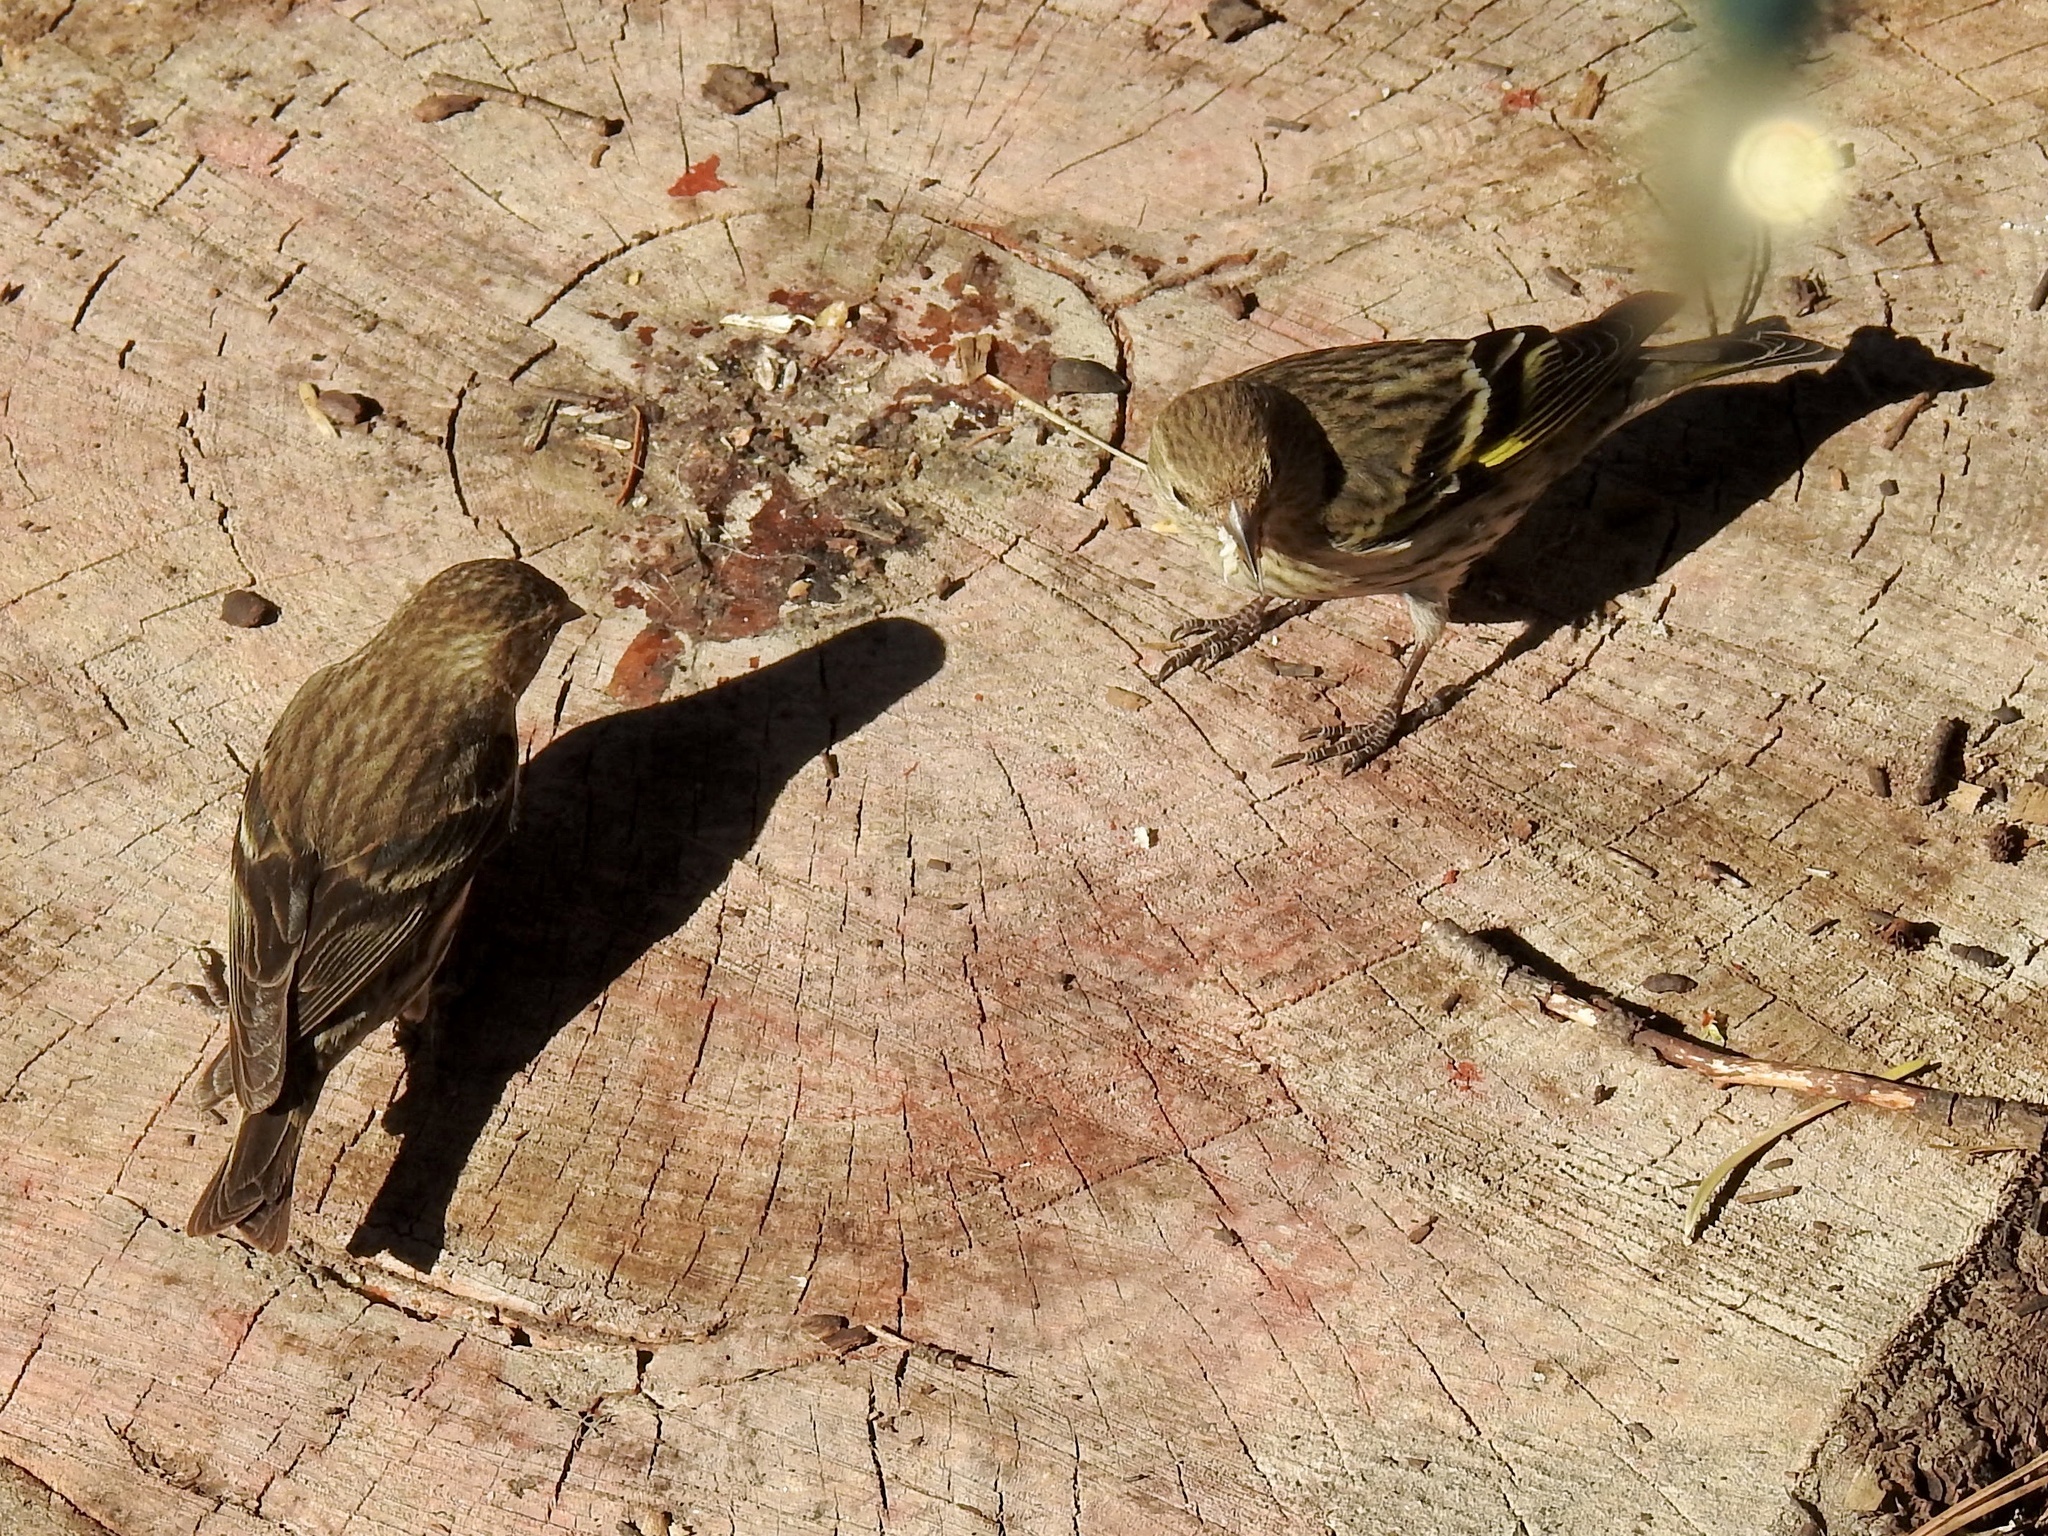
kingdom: Animalia
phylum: Chordata
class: Aves
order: Passeriformes
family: Fringillidae
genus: Spinus
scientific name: Spinus pinus
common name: Pine siskin
